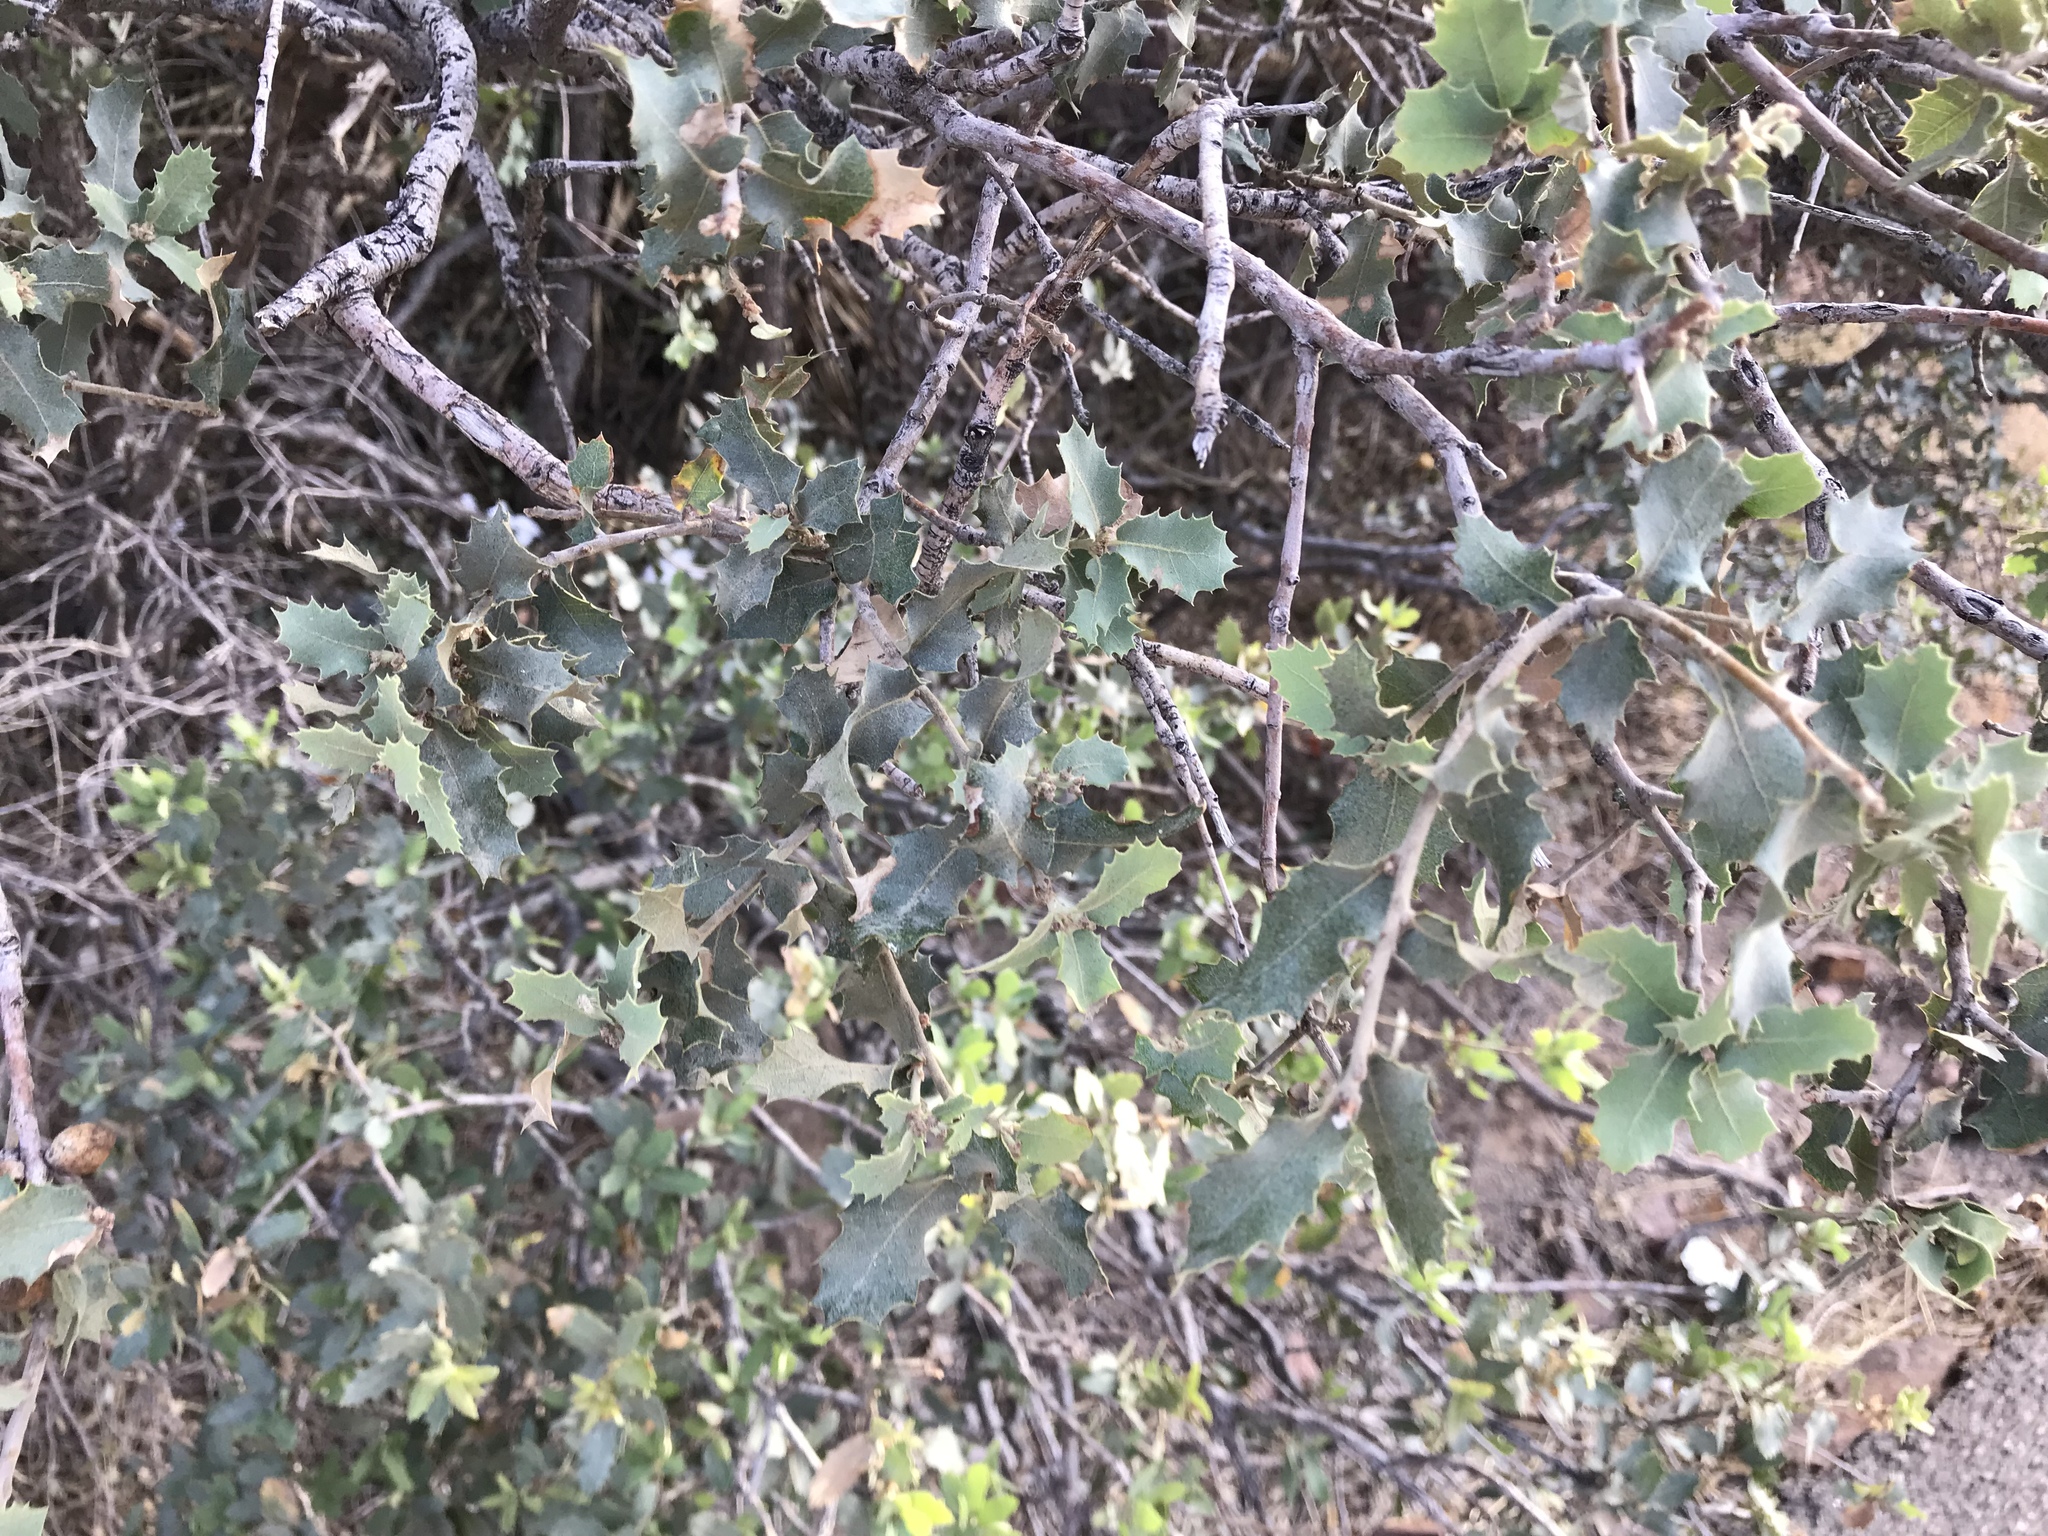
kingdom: Plantae
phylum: Tracheophyta
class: Magnoliopsida
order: Fagales
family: Fagaceae
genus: Quercus
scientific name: Quercus turbinella
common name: Sonoran scrub oak
